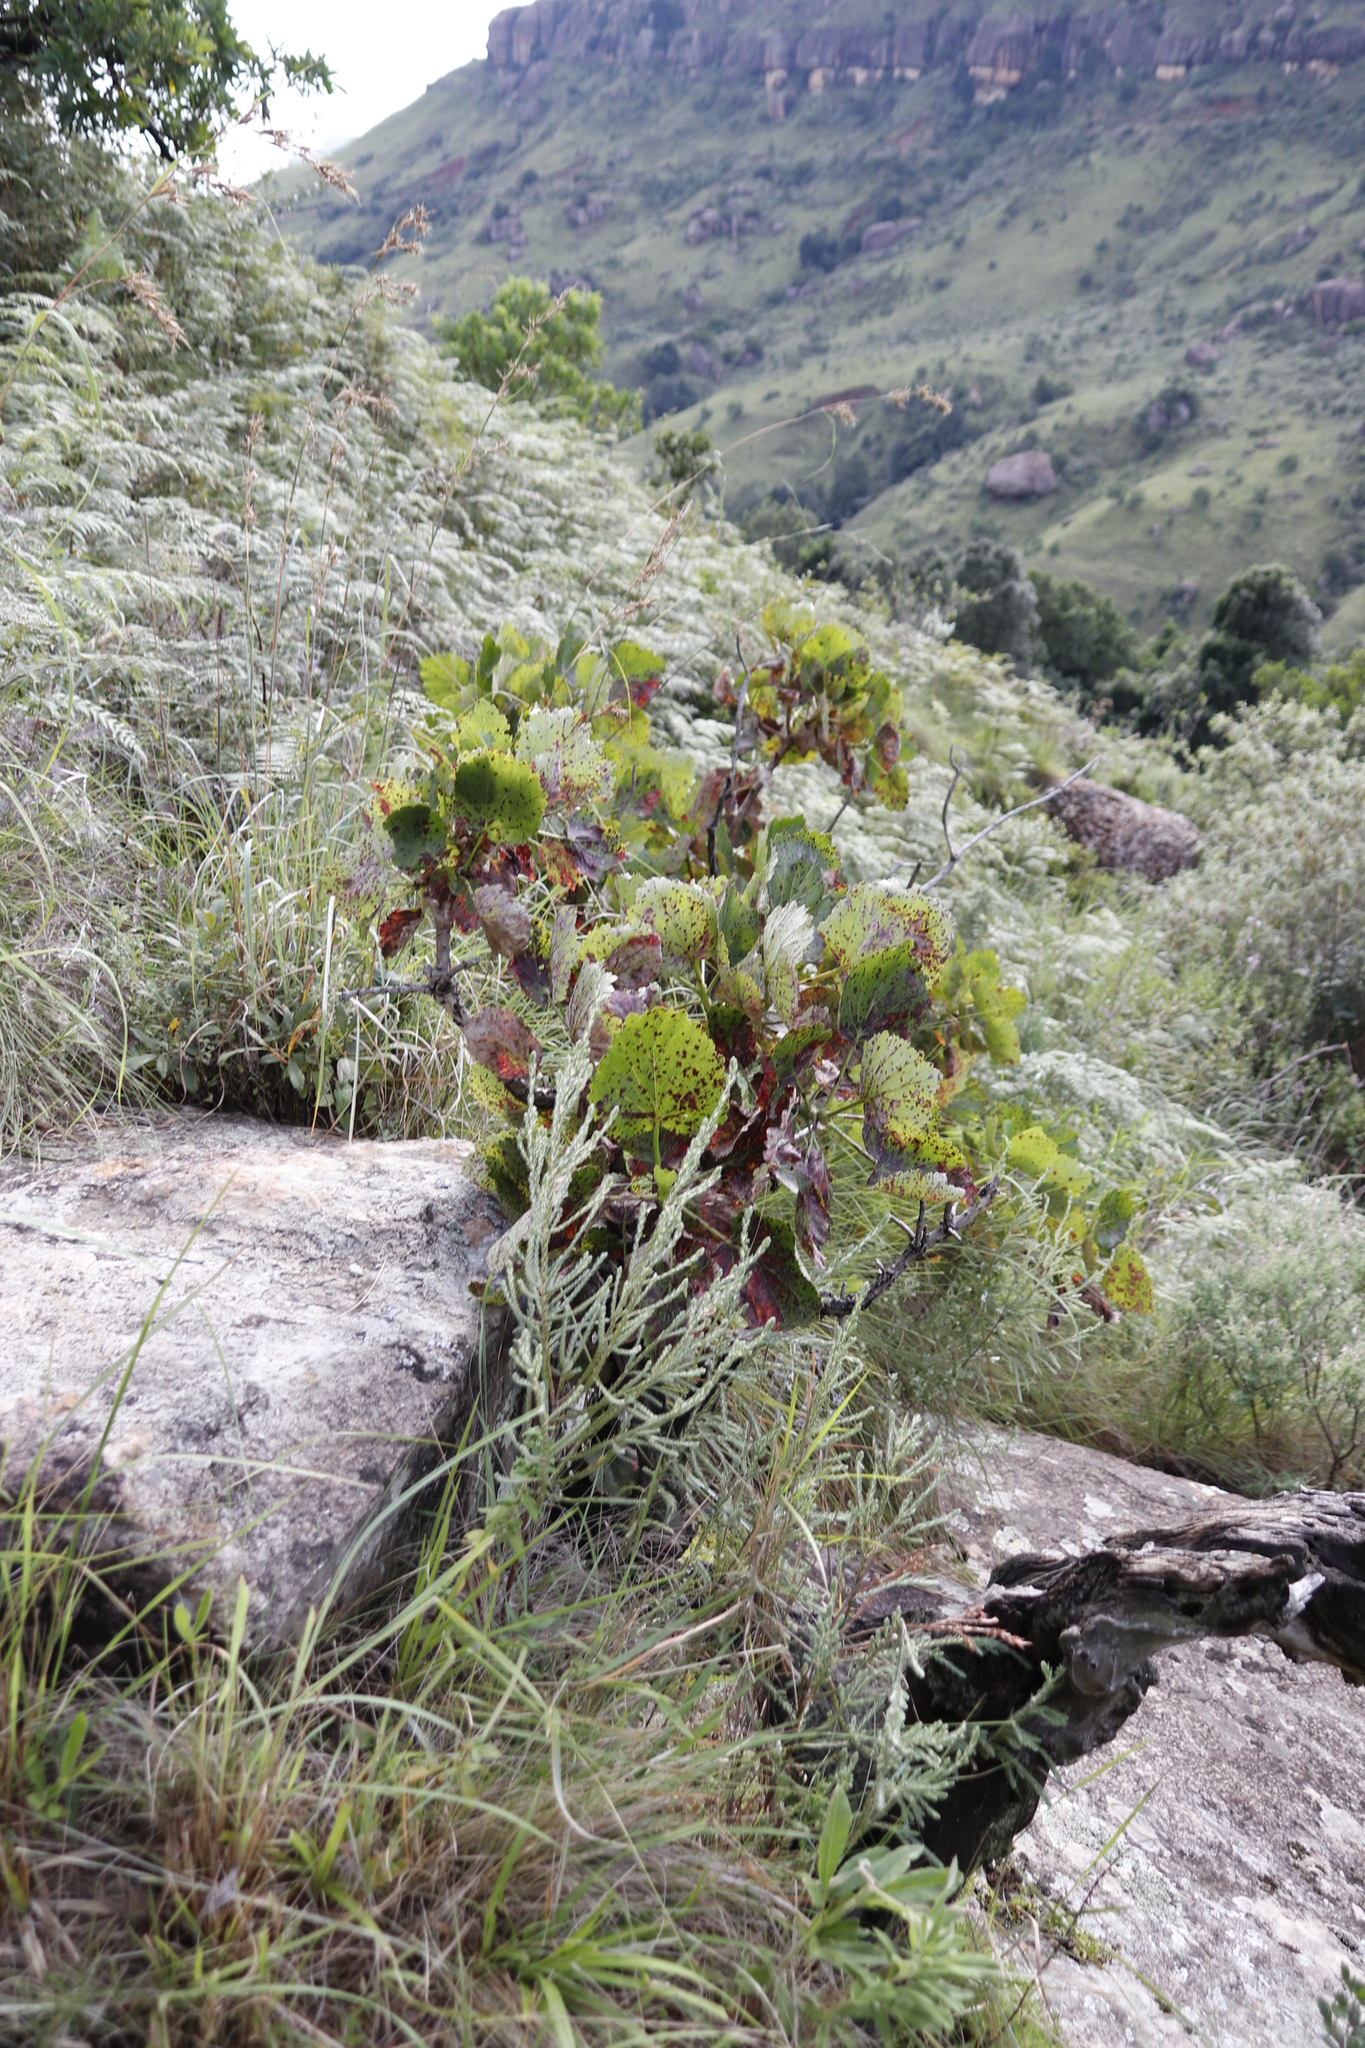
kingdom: Plantae
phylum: Tracheophyta
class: Magnoliopsida
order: Geraniales
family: Francoaceae
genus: Greyia
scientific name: Greyia sutherlandii
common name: Glossy bottlebrush
